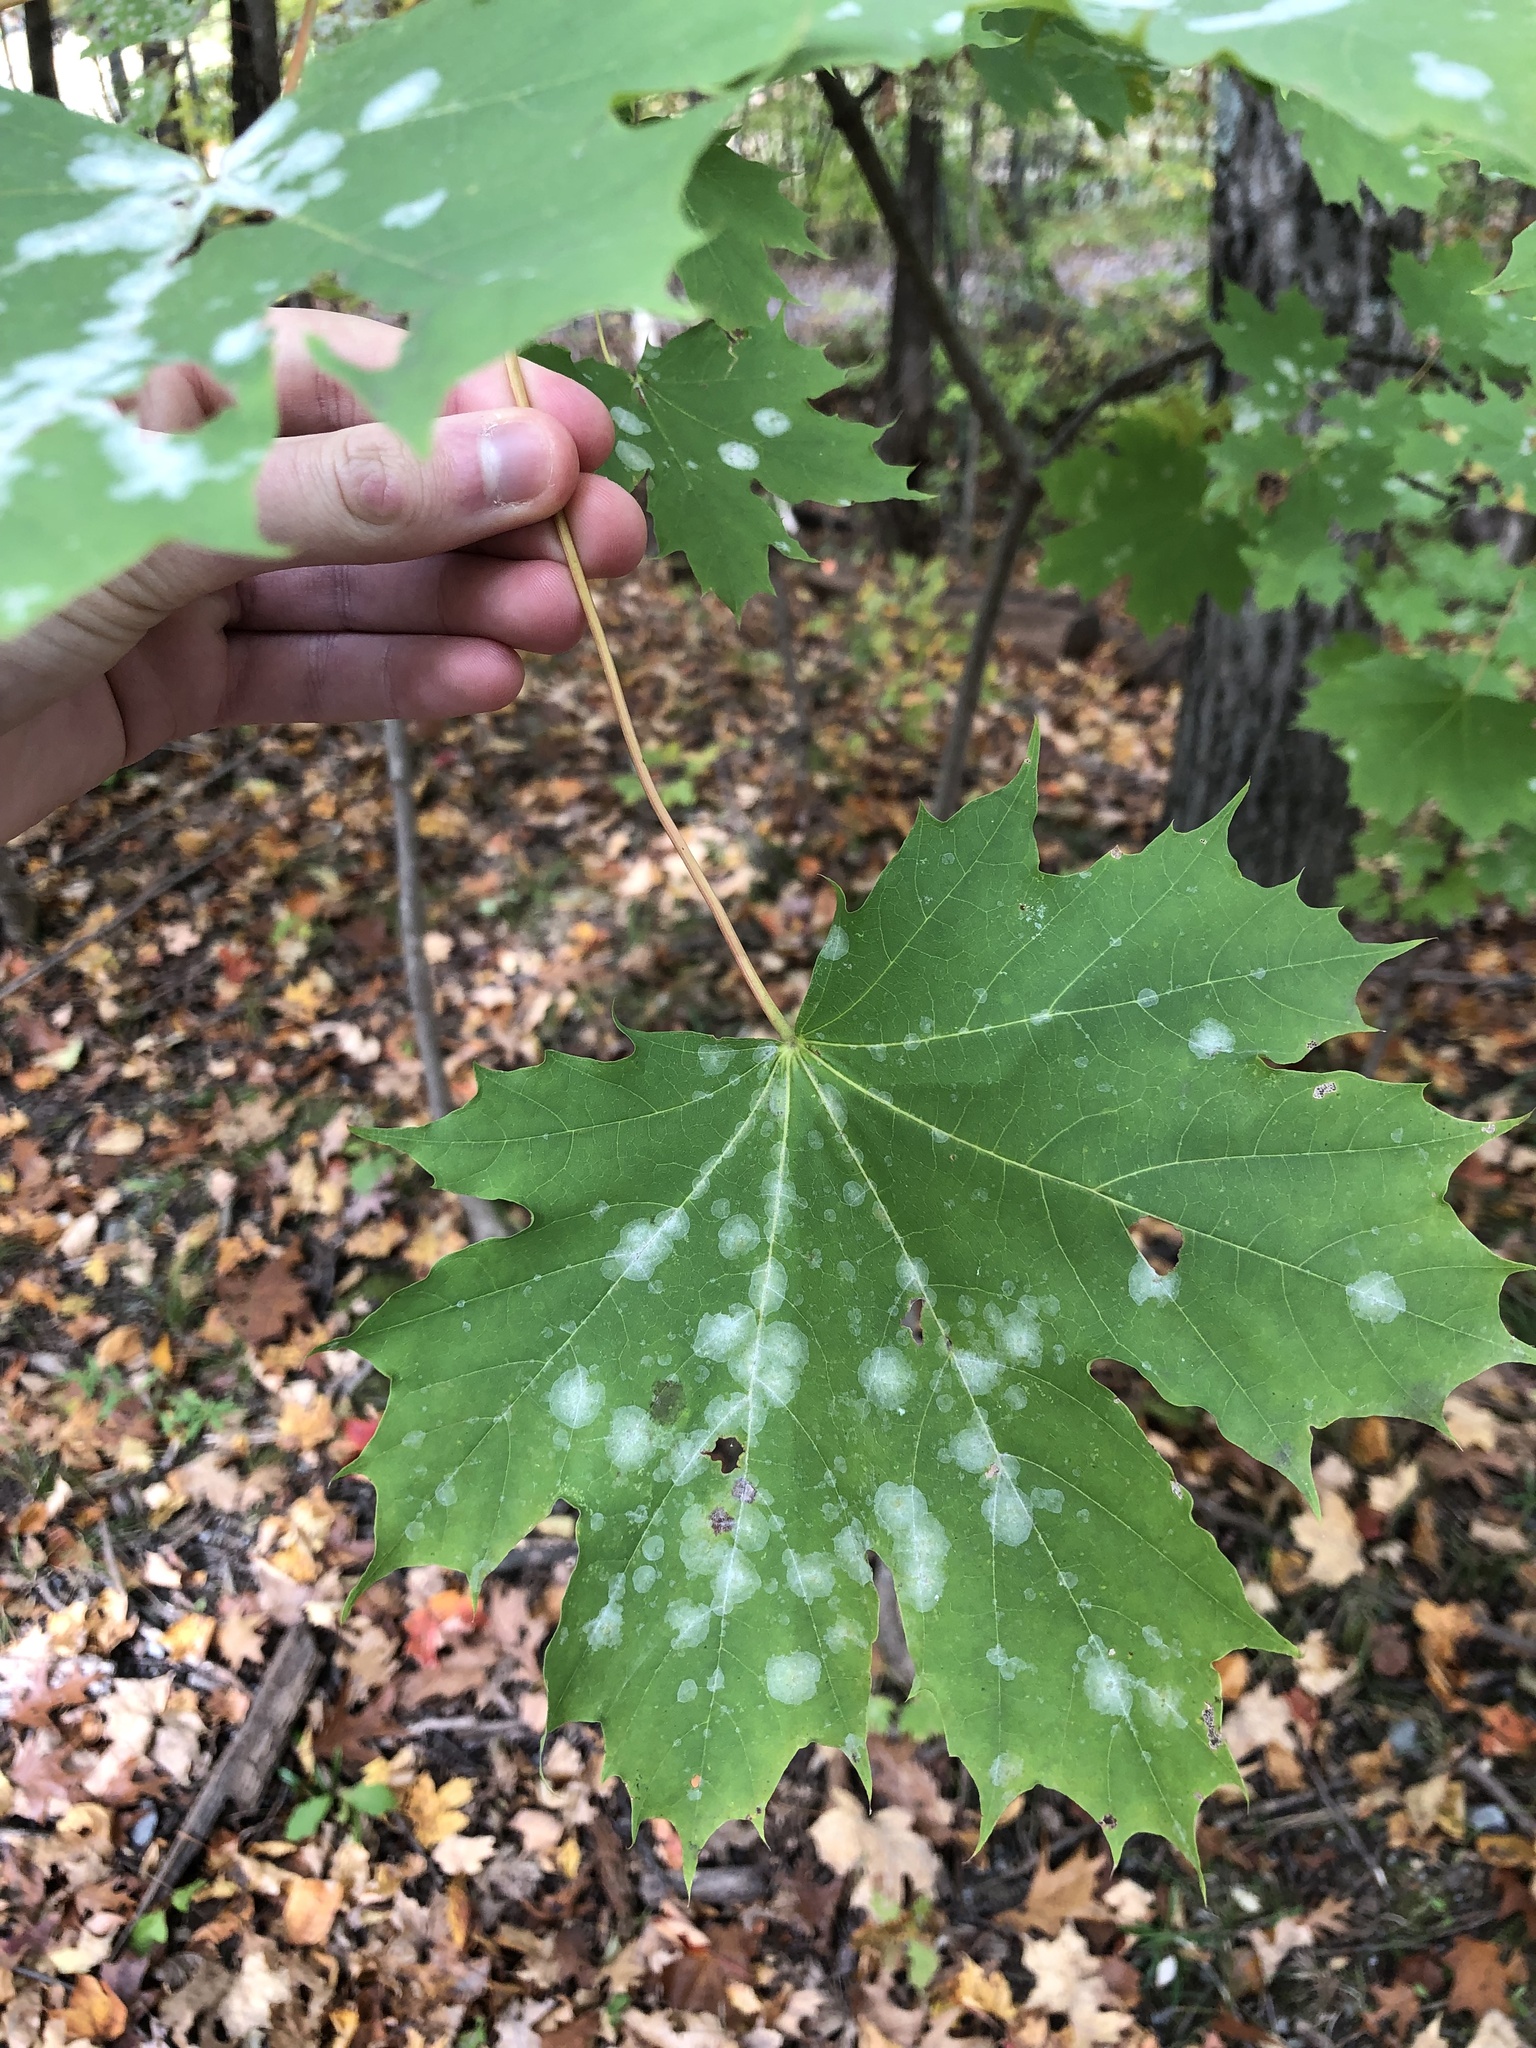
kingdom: Plantae
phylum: Tracheophyta
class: Magnoliopsida
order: Sapindales
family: Sapindaceae
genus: Acer
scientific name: Acer platanoides
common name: Norway maple
